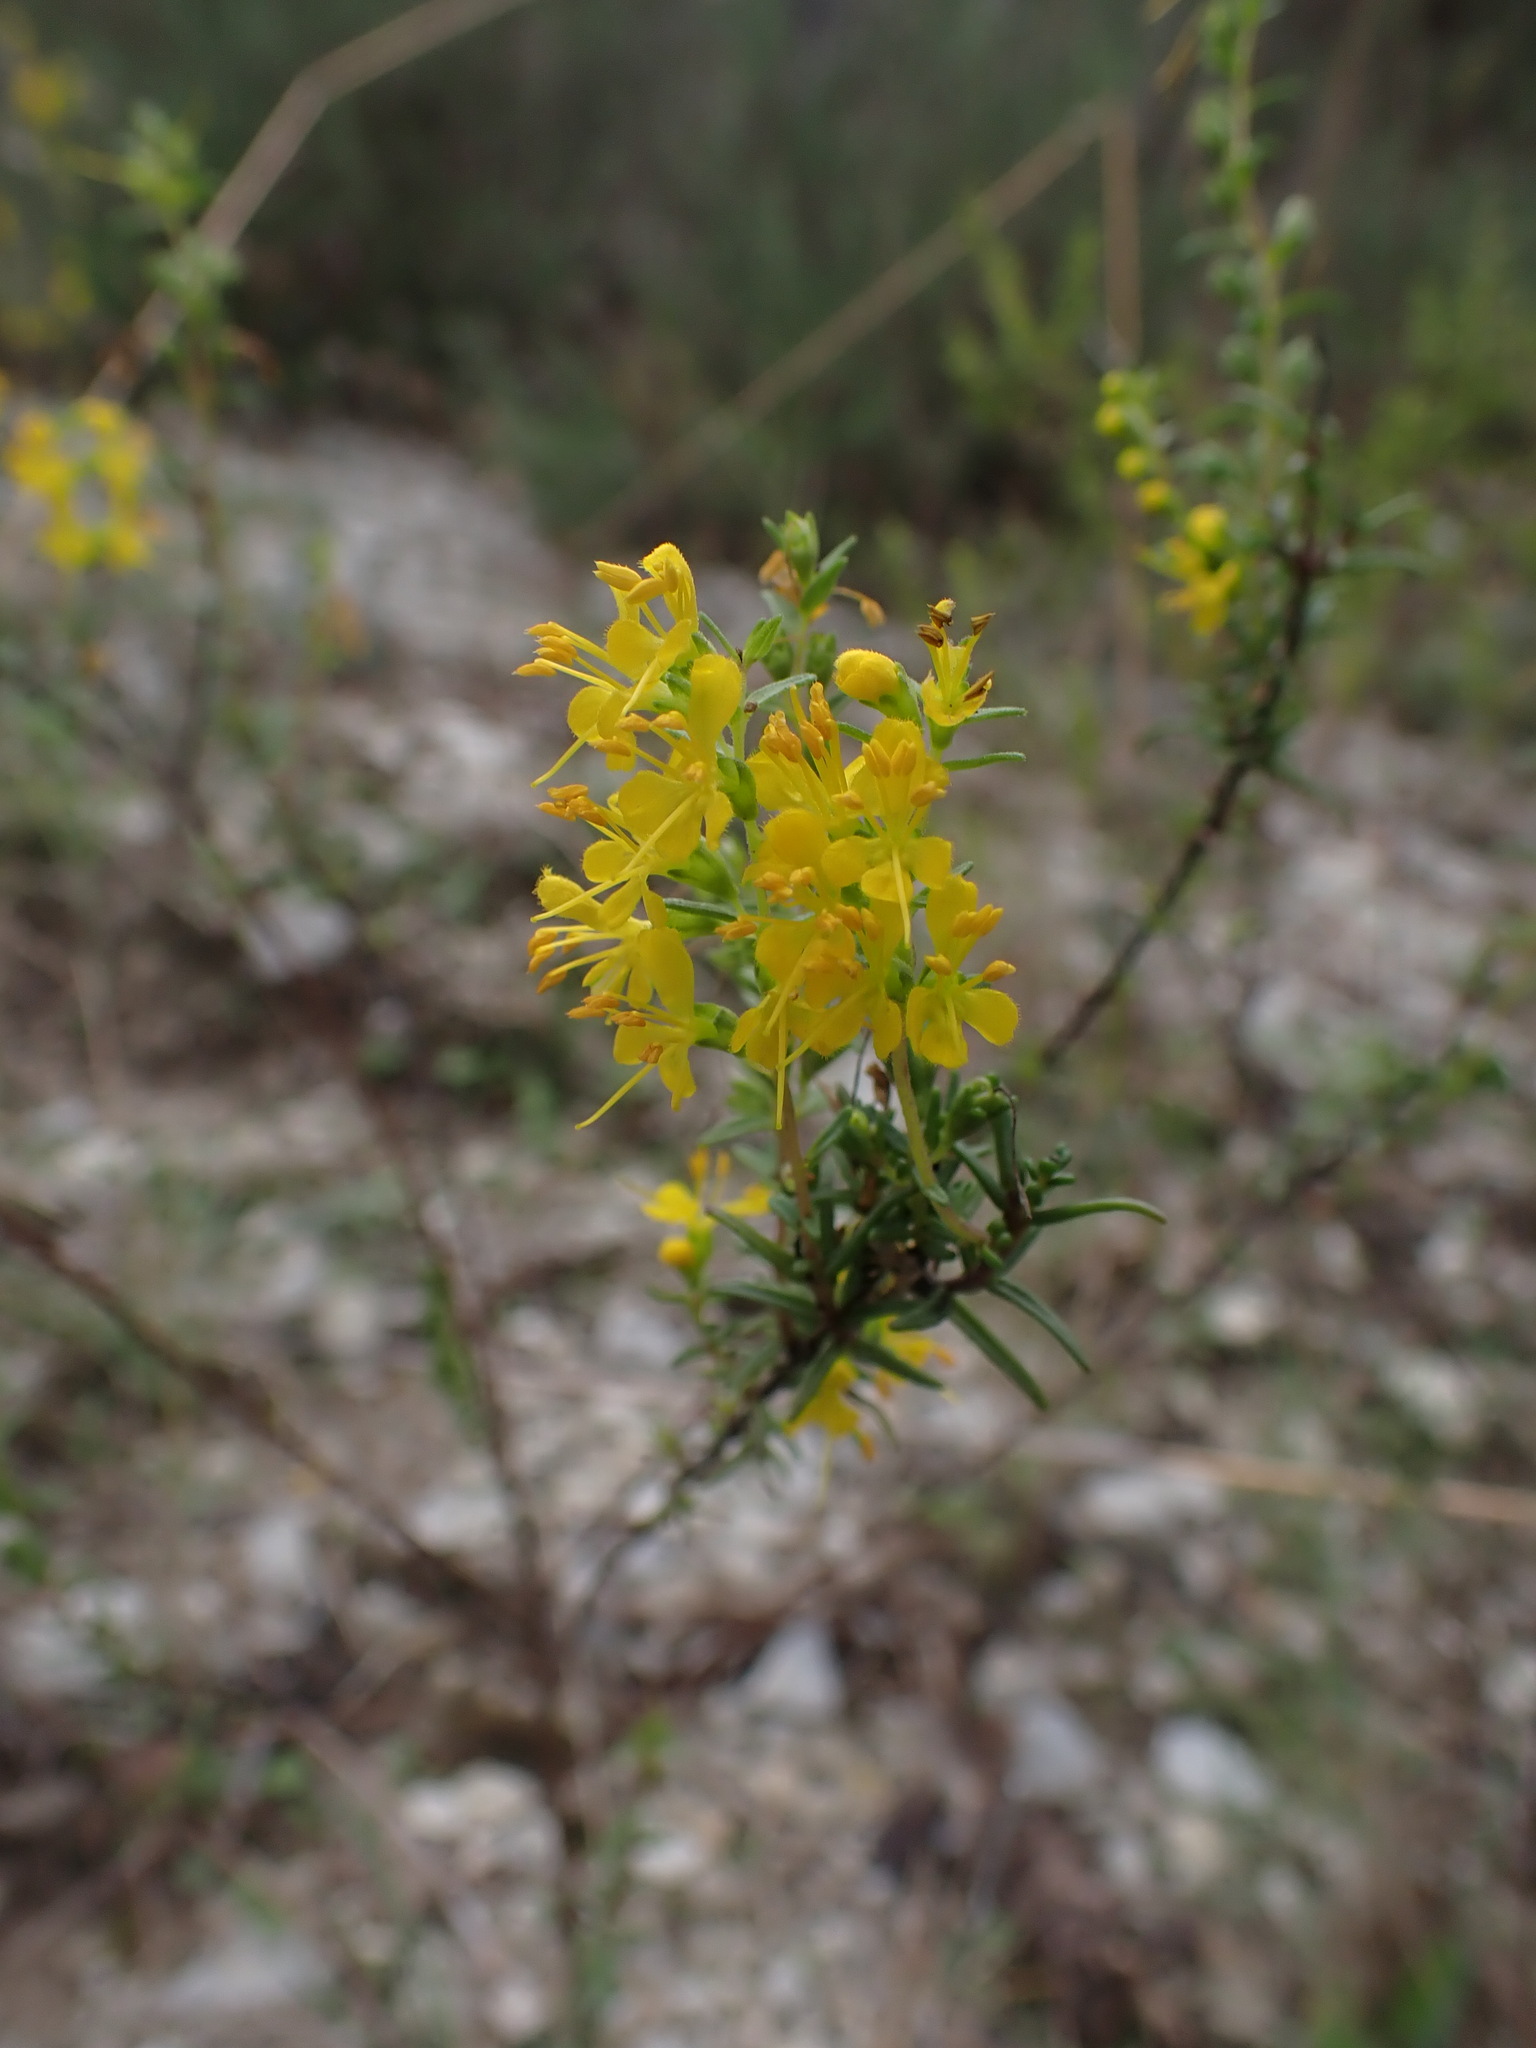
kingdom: Plantae
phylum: Tracheophyta
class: Magnoliopsida
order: Lamiales
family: Orobanchaceae
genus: Odontites
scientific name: Odontites luteus
